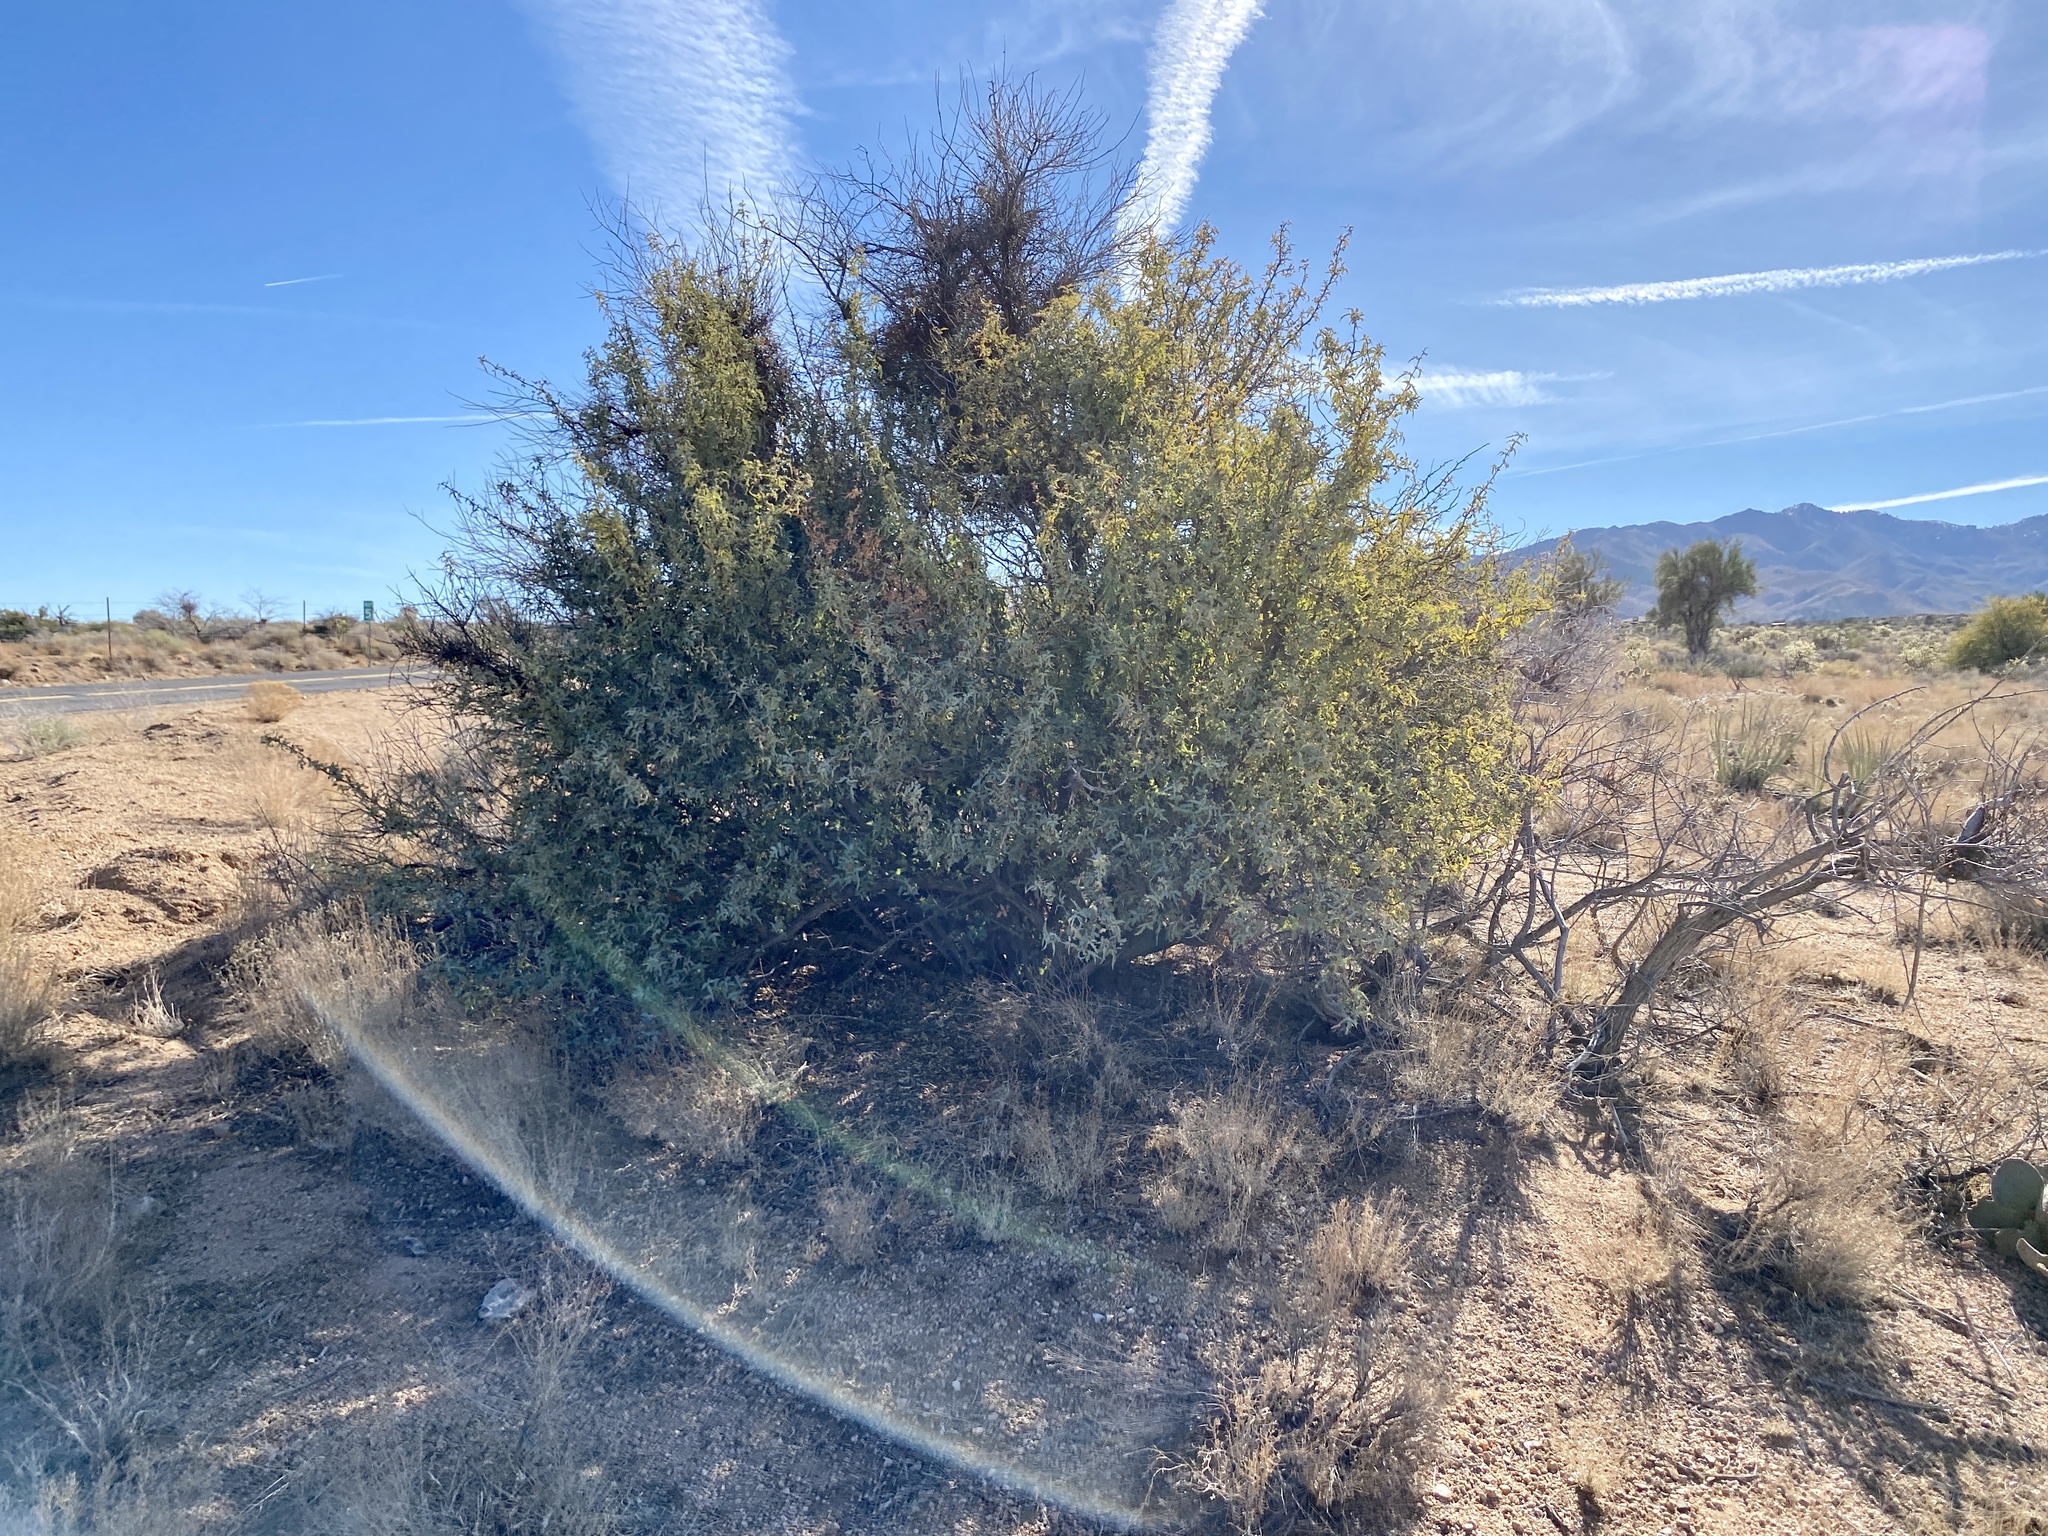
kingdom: Plantae
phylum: Tracheophyta
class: Magnoliopsida
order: Ranunculales
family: Berberidaceae
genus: Alloberberis
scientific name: Alloberberis fremontii
